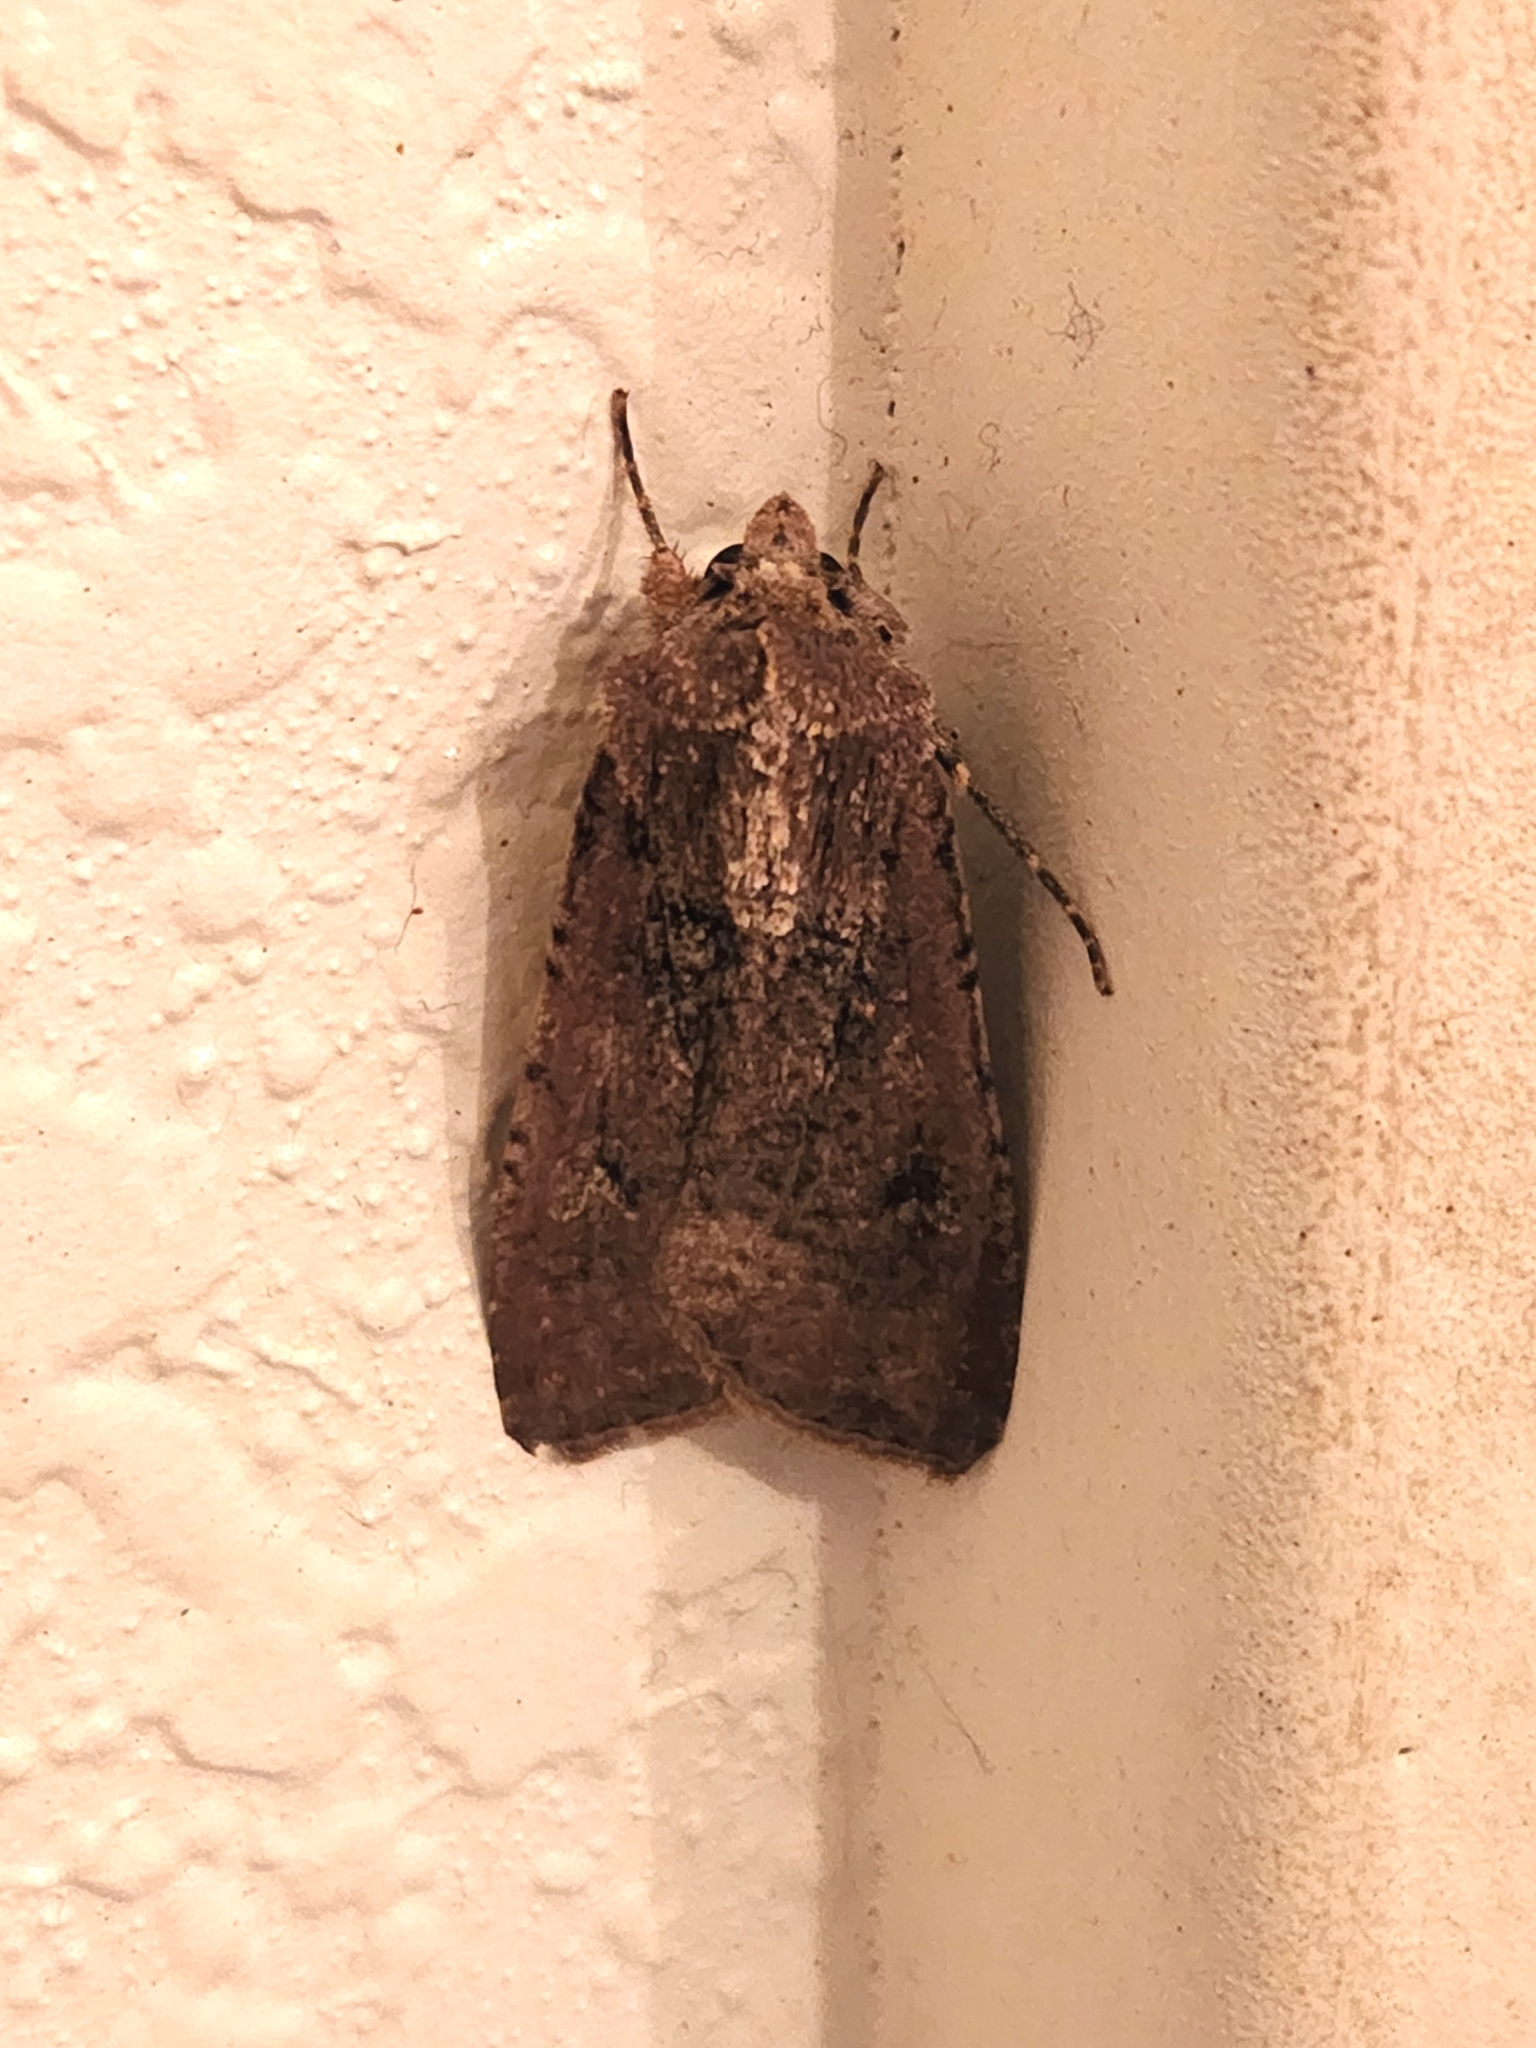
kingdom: Animalia
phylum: Arthropoda
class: Insecta
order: Lepidoptera
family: Noctuidae
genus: Peridroma
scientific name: Peridroma saucia
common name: Pearly underwing
